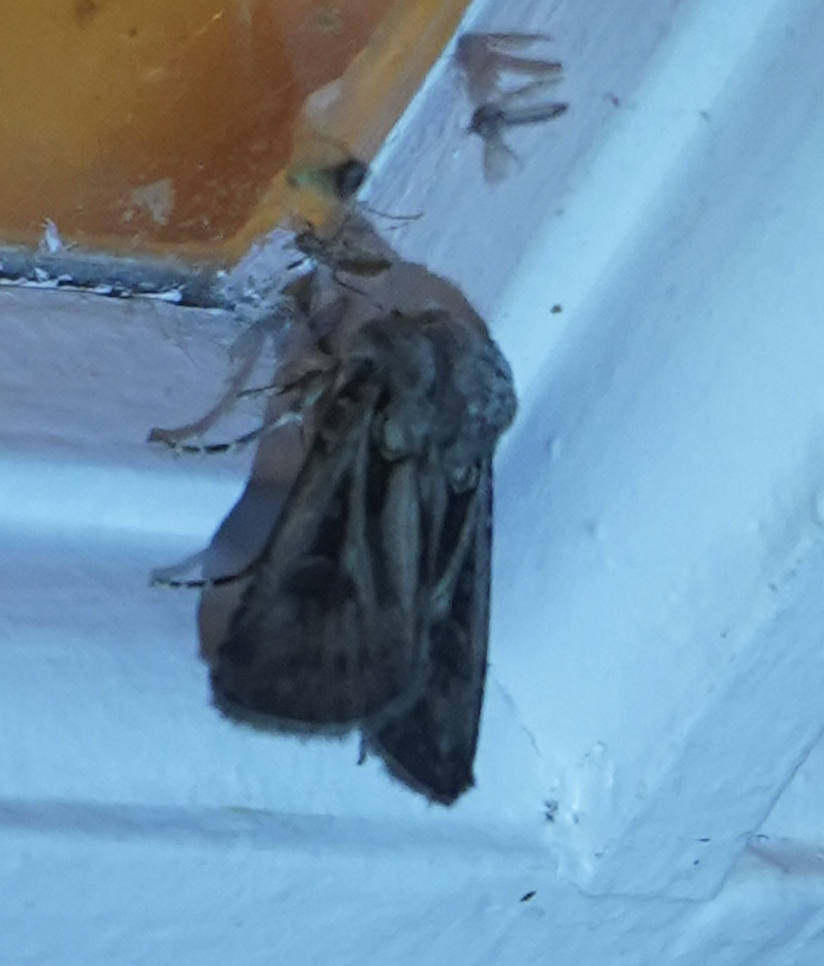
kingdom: Animalia
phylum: Arthropoda
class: Insecta
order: Lepidoptera
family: Noctuidae
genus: Agrotis
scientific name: Agrotis gladiaria
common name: Claybacked cutworm
